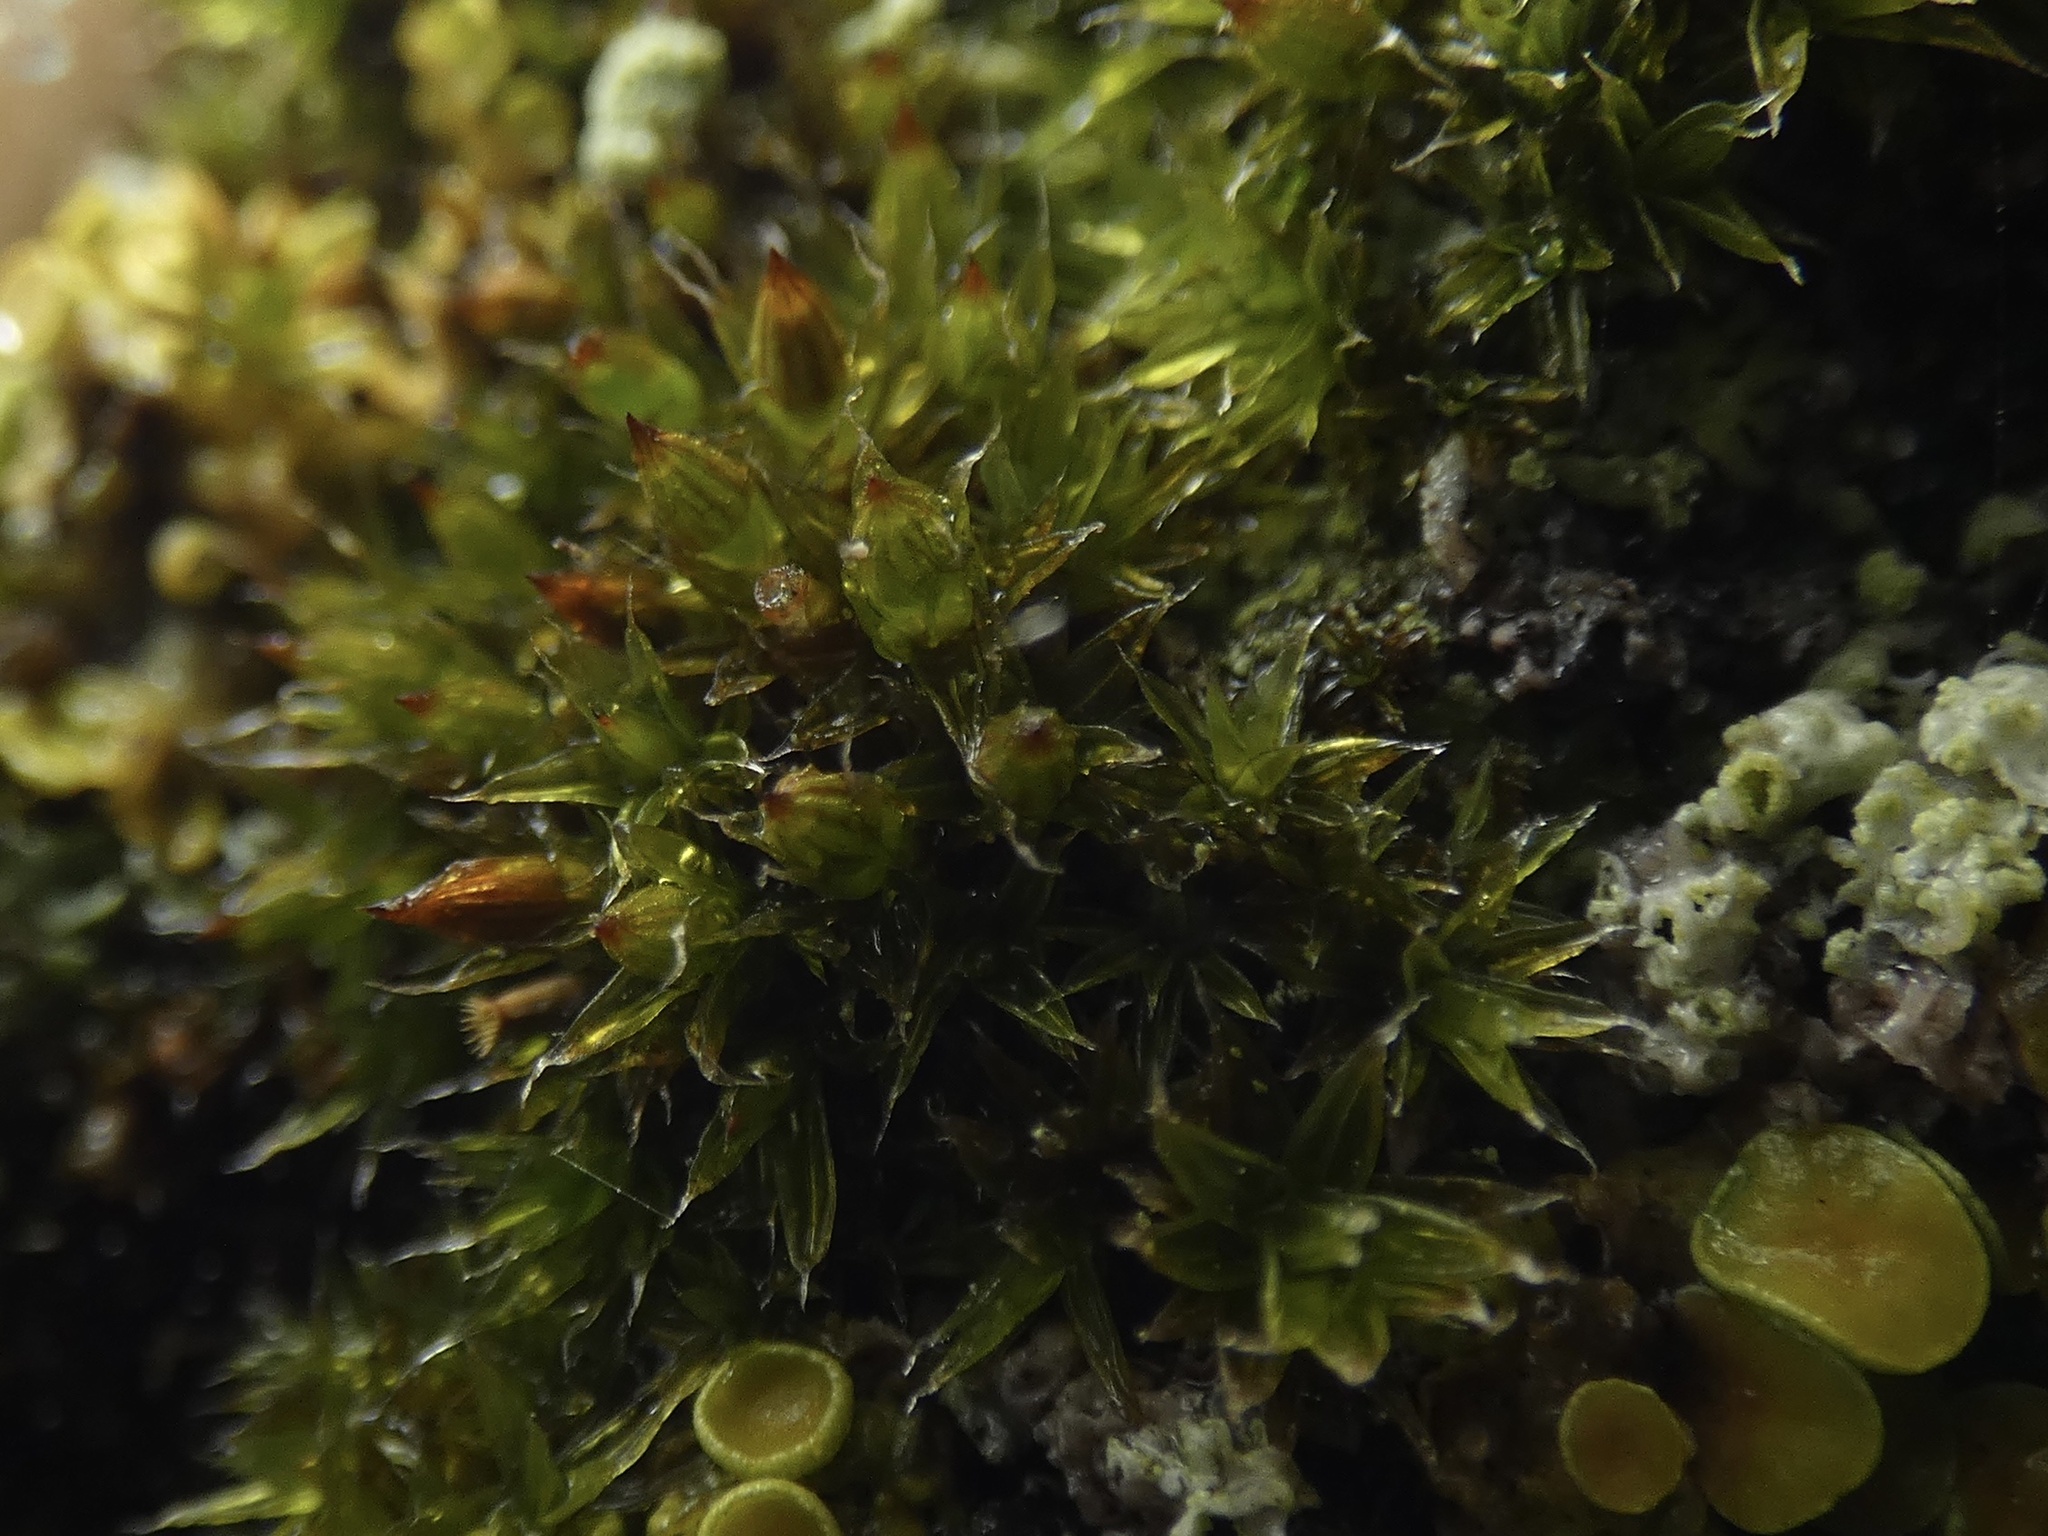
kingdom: Plantae
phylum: Bryophyta
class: Bryopsida
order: Orthotrichales
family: Orthotrichaceae
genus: Orthotrichum
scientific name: Orthotrichum diaphanum
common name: White-tipped bristle-moss
